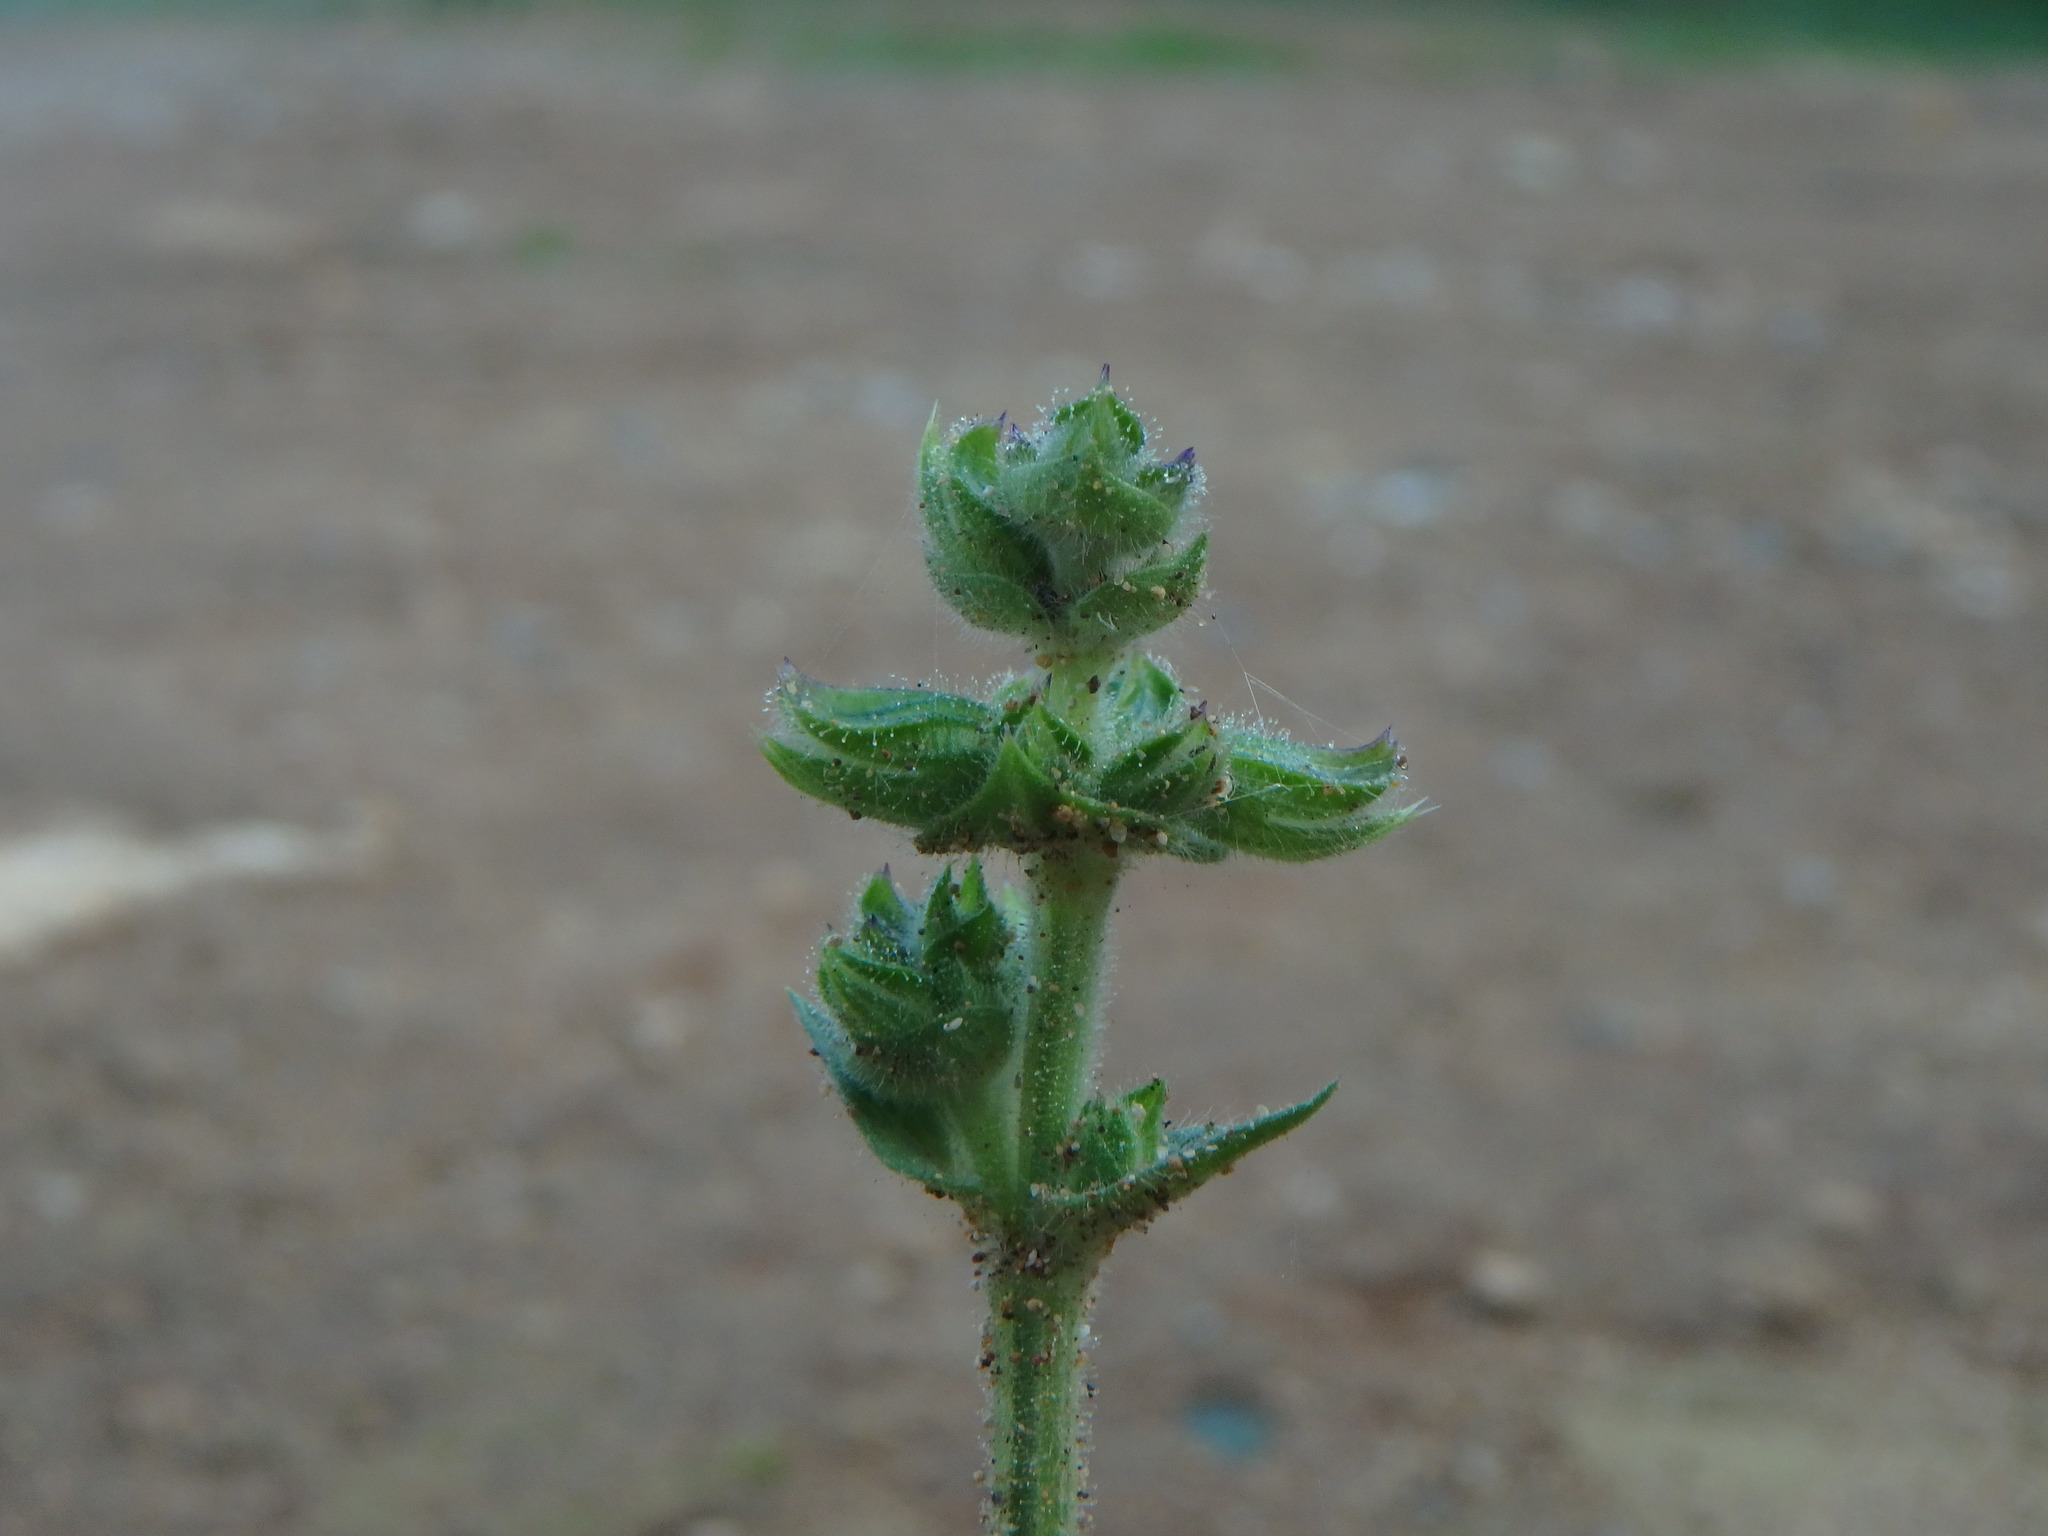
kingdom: Plantae
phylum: Tracheophyta
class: Magnoliopsida
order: Lamiales
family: Lamiaceae
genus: Salvia
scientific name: Salvia verbenaca
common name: Wild clary
